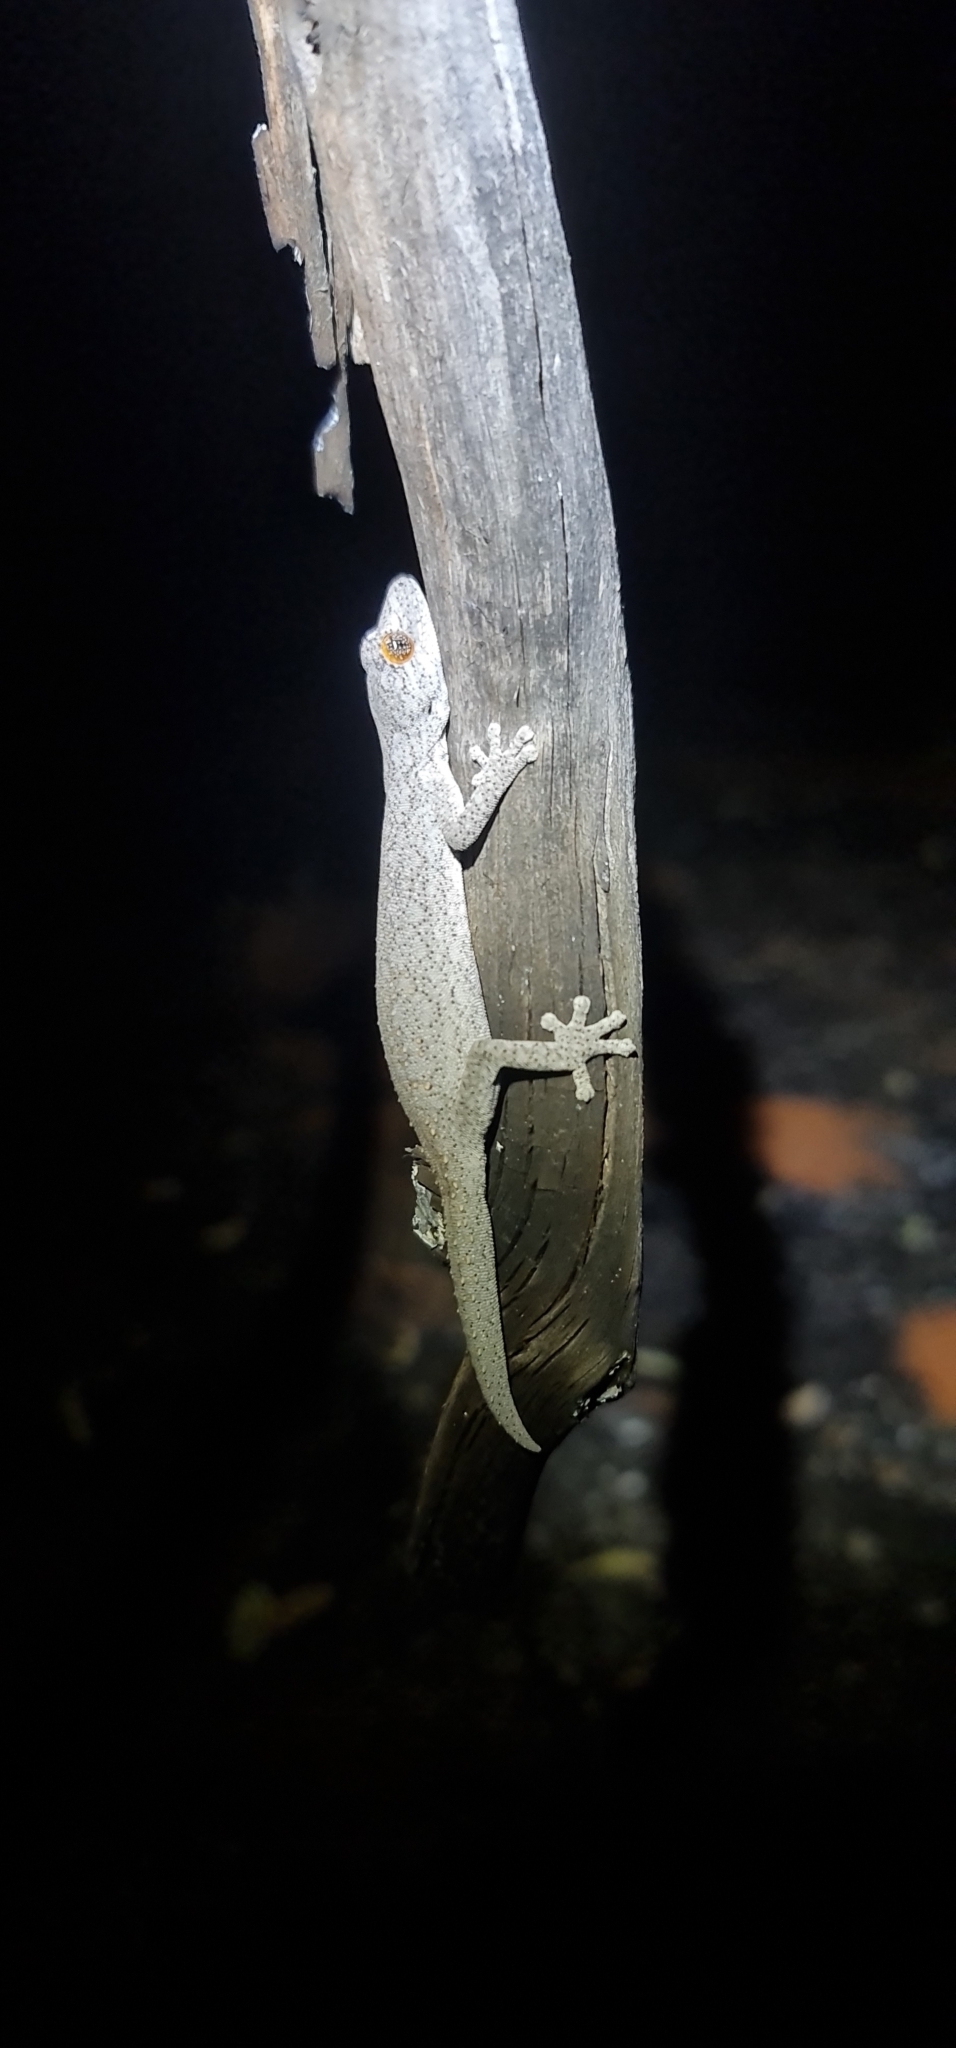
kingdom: Animalia
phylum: Chordata
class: Squamata
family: Diplodactylidae
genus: Strophurus
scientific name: Strophurus williamsi
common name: Eastern spiny-tailed gecko
